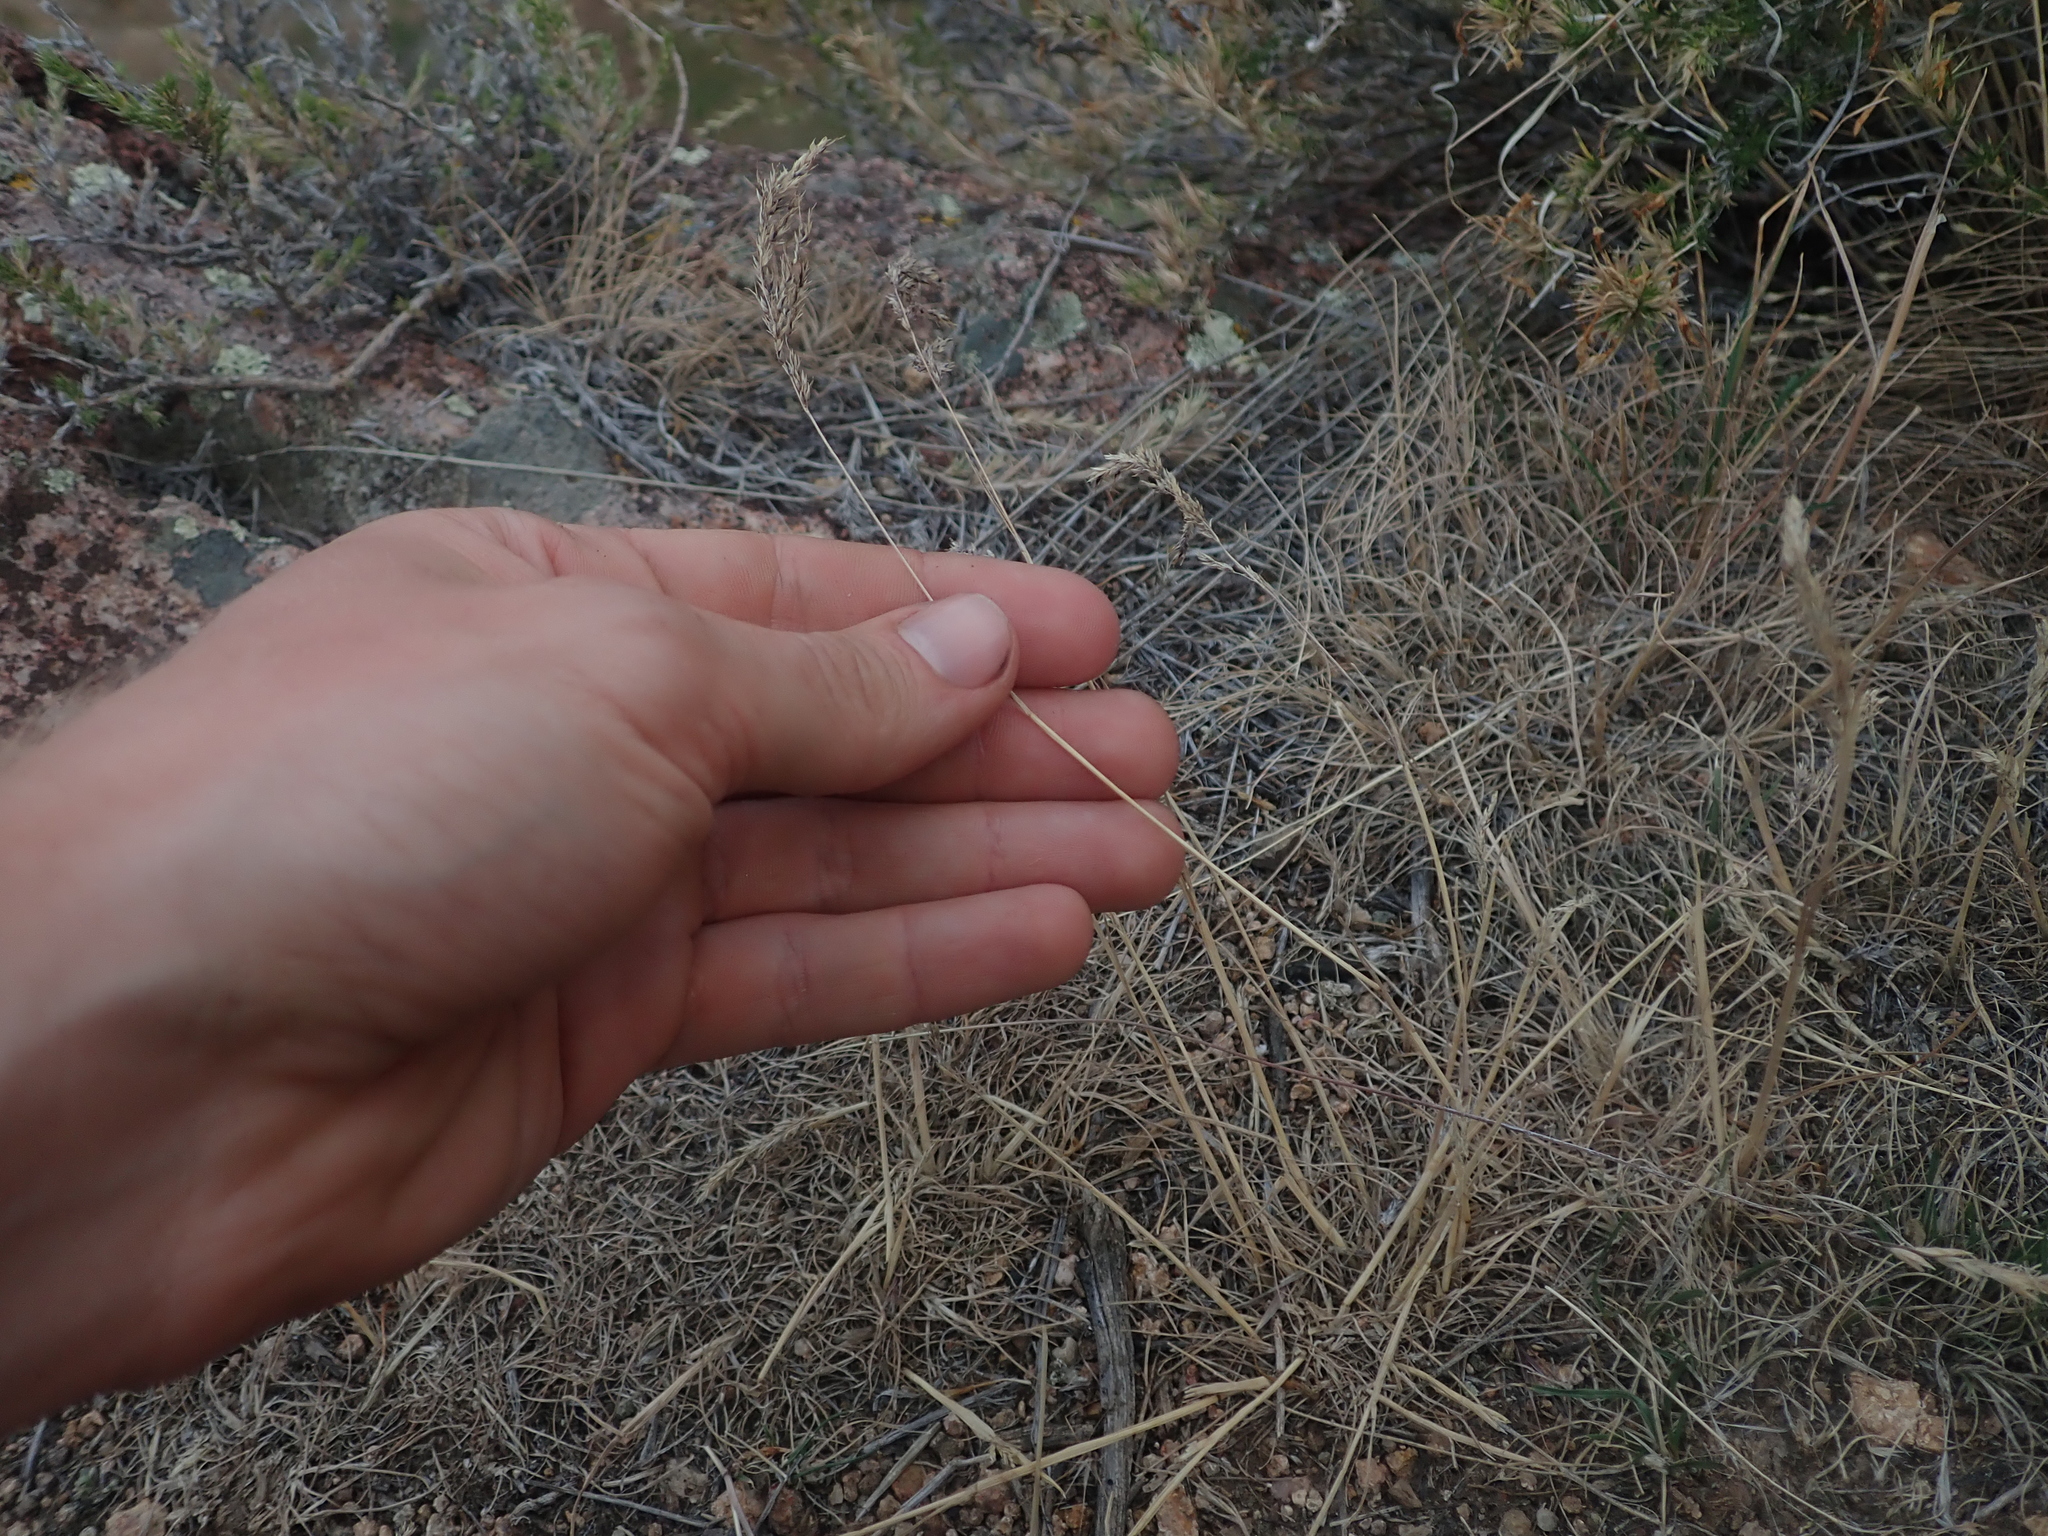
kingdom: Plantae
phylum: Tracheophyta
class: Liliopsida
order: Poales
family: Poaceae
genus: Poa
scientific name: Poa bulbosa
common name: Bulbous bluegrass
